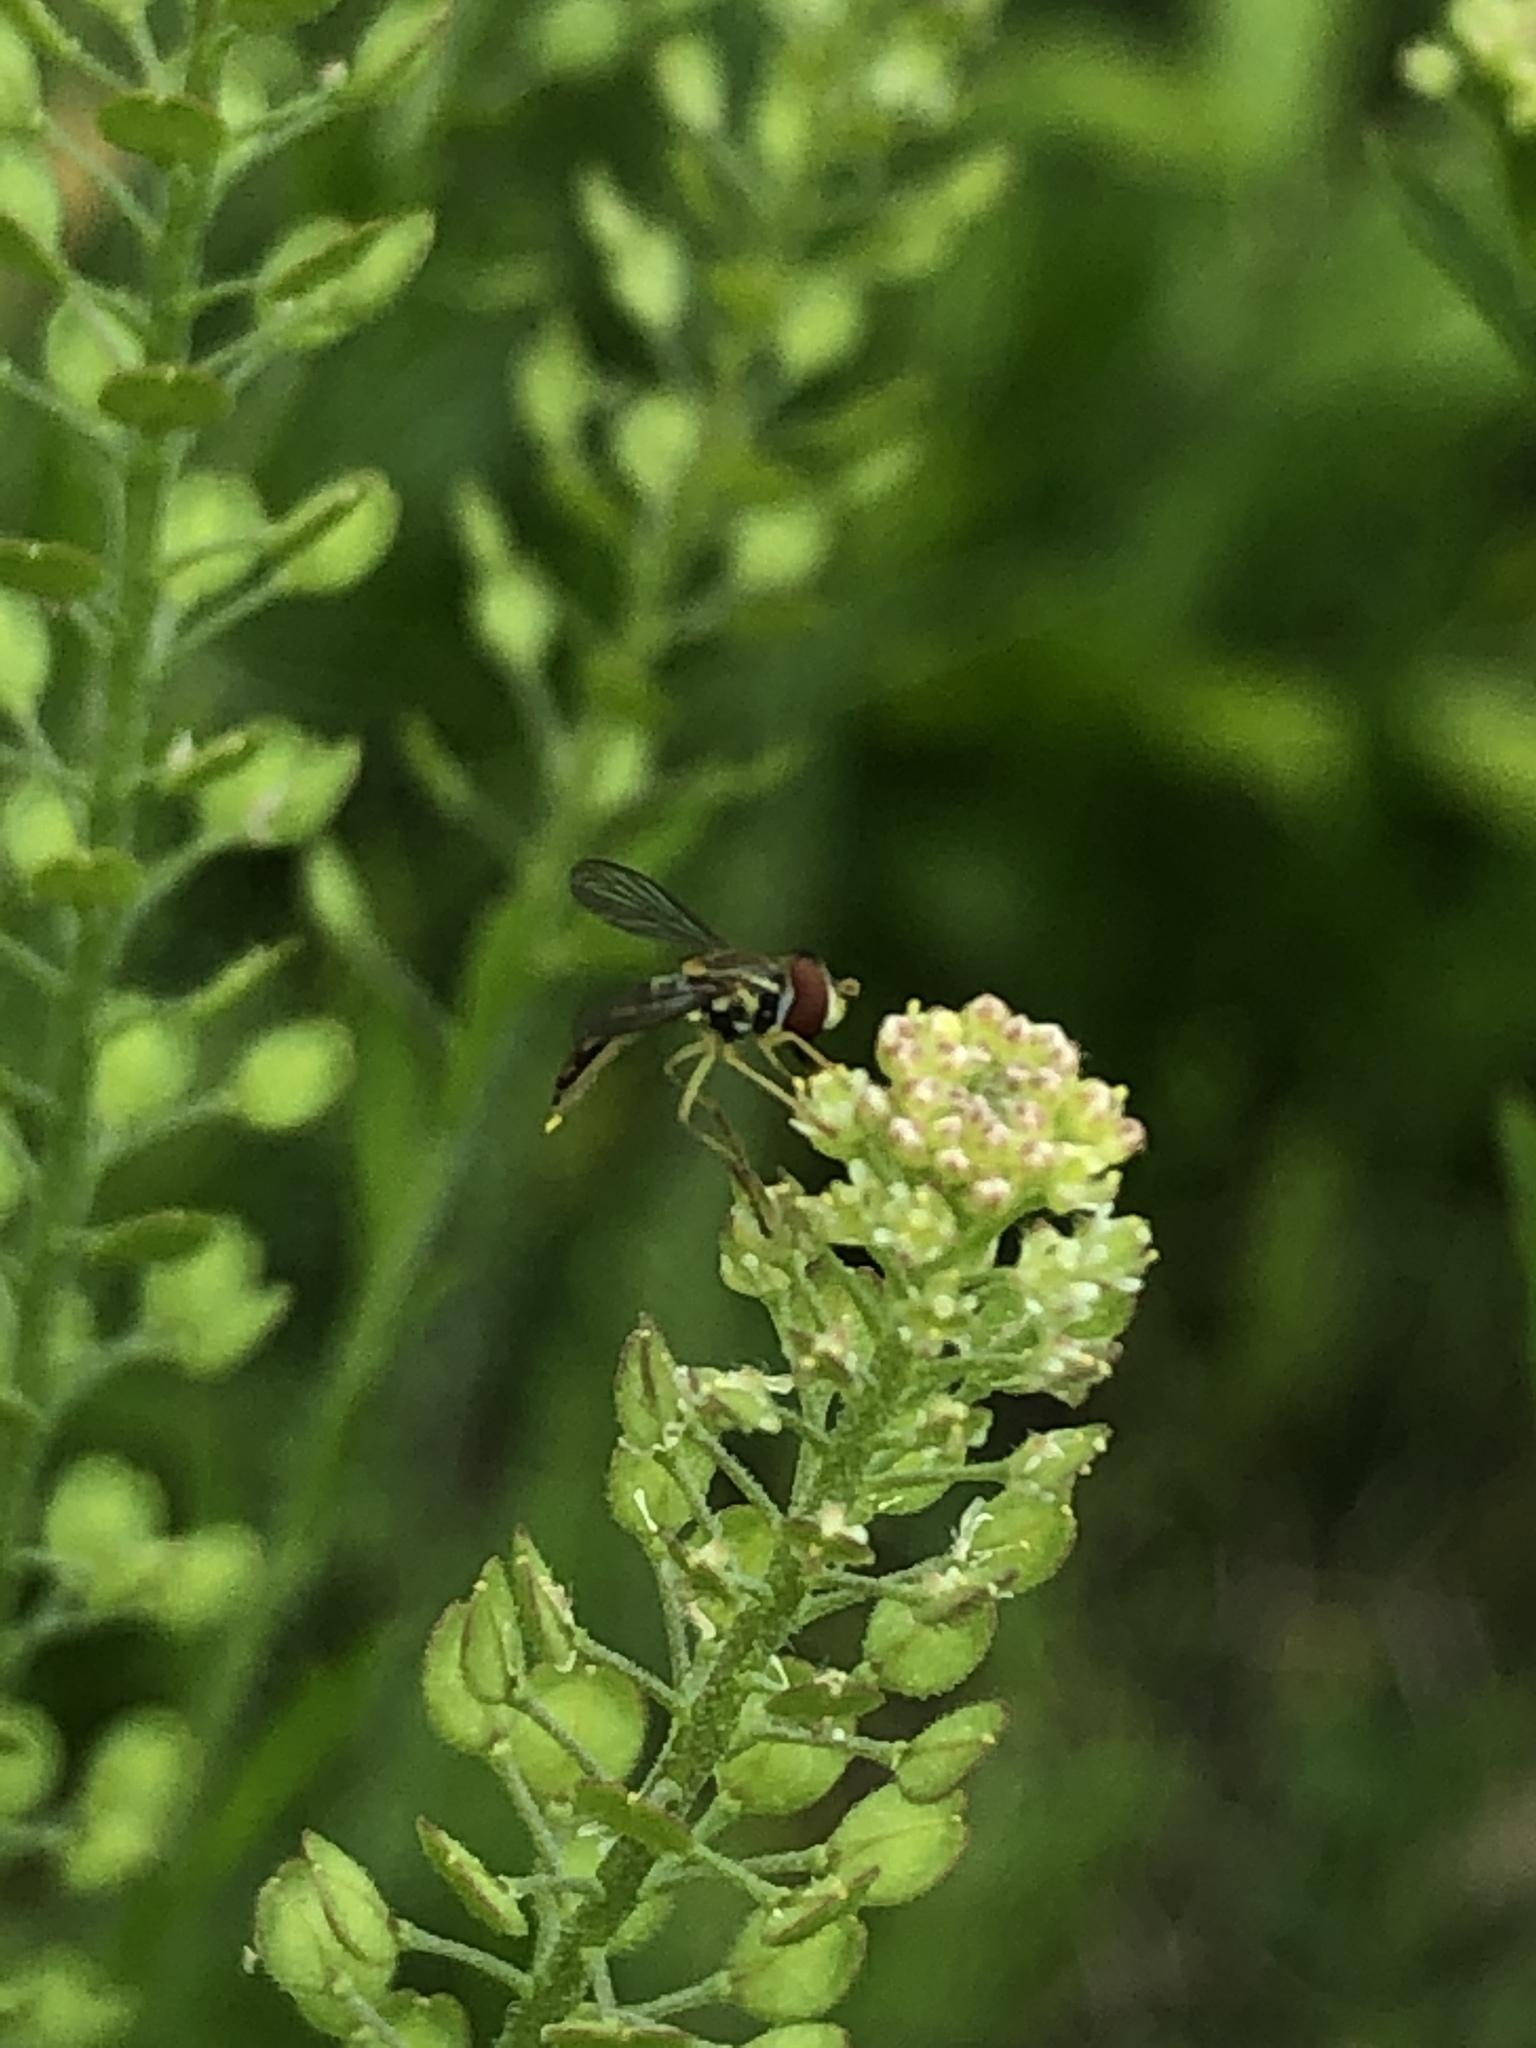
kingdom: Animalia
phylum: Arthropoda
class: Insecta
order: Diptera
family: Syrphidae
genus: Toxomerus
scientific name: Toxomerus marginatus
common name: Syrphid fly
